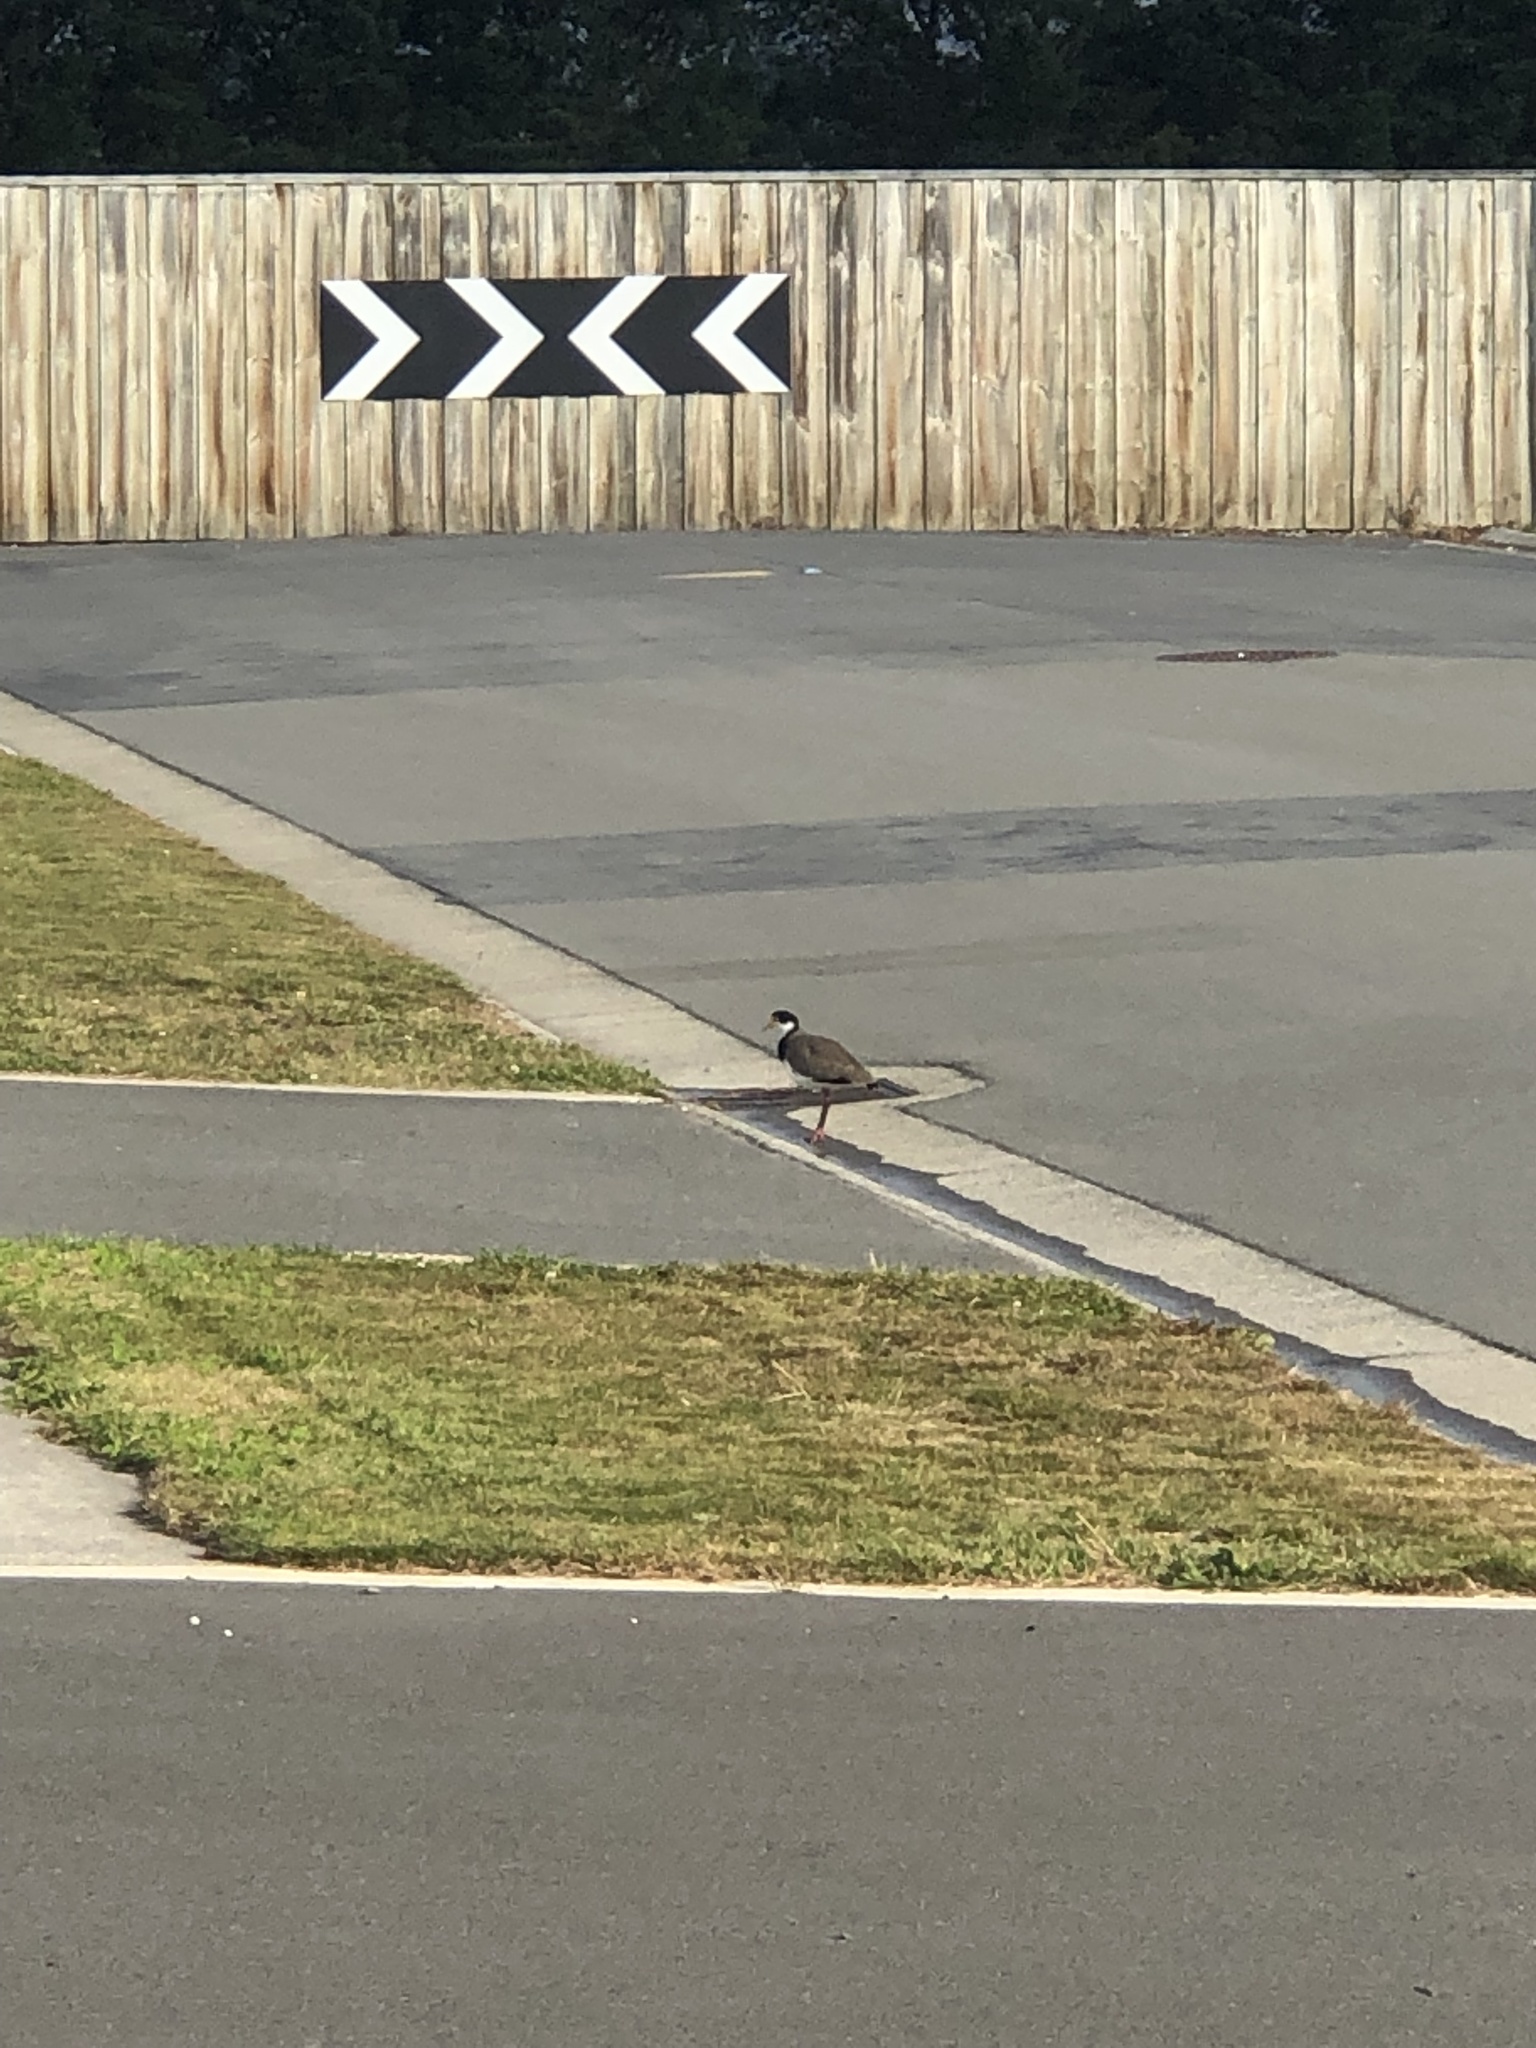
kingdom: Animalia
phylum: Chordata
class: Aves
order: Charadriiformes
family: Charadriidae
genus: Vanellus
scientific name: Vanellus miles
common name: Masked lapwing
